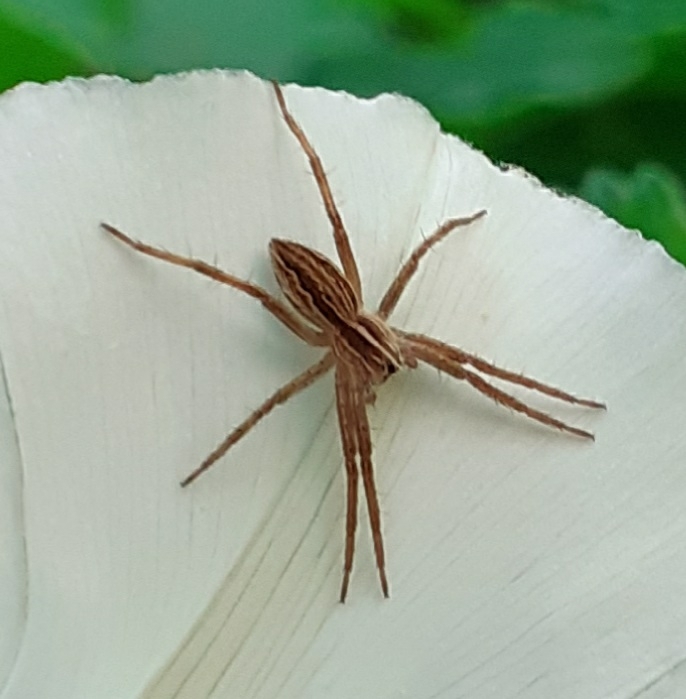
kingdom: Animalia
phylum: Arthropoda
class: Arachnida
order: Araneae
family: Pisauridae
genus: Pisaura
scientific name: Pisaura mirabilis
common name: Tent spider
